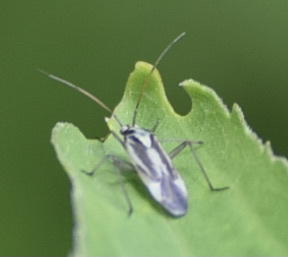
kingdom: Animalia
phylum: Arthropoda
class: Insecta
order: Hemiptera
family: Miridae
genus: Stenotus
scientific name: Stenotus binotatus
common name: Plant bug
